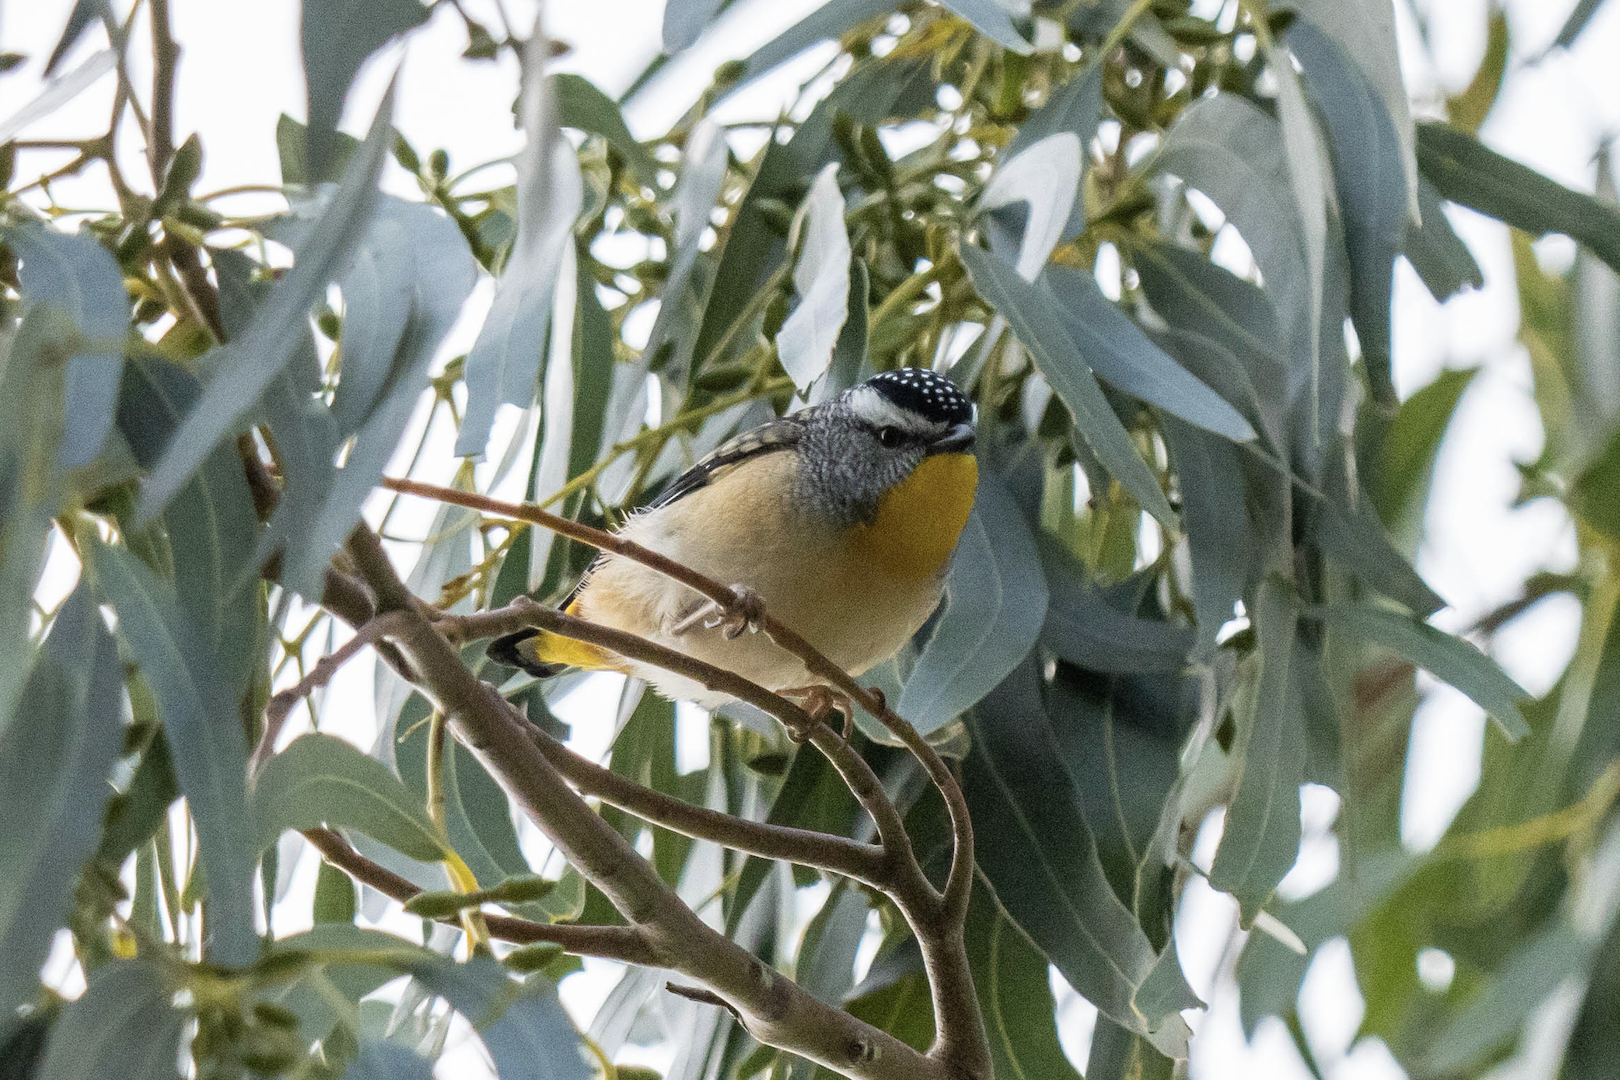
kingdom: Animalia
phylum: Chordata
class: Aves
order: Passeriformes
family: Pardalotidae
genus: Pardalotus
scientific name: Pardalotus punctatus
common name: Spotted pardalote
